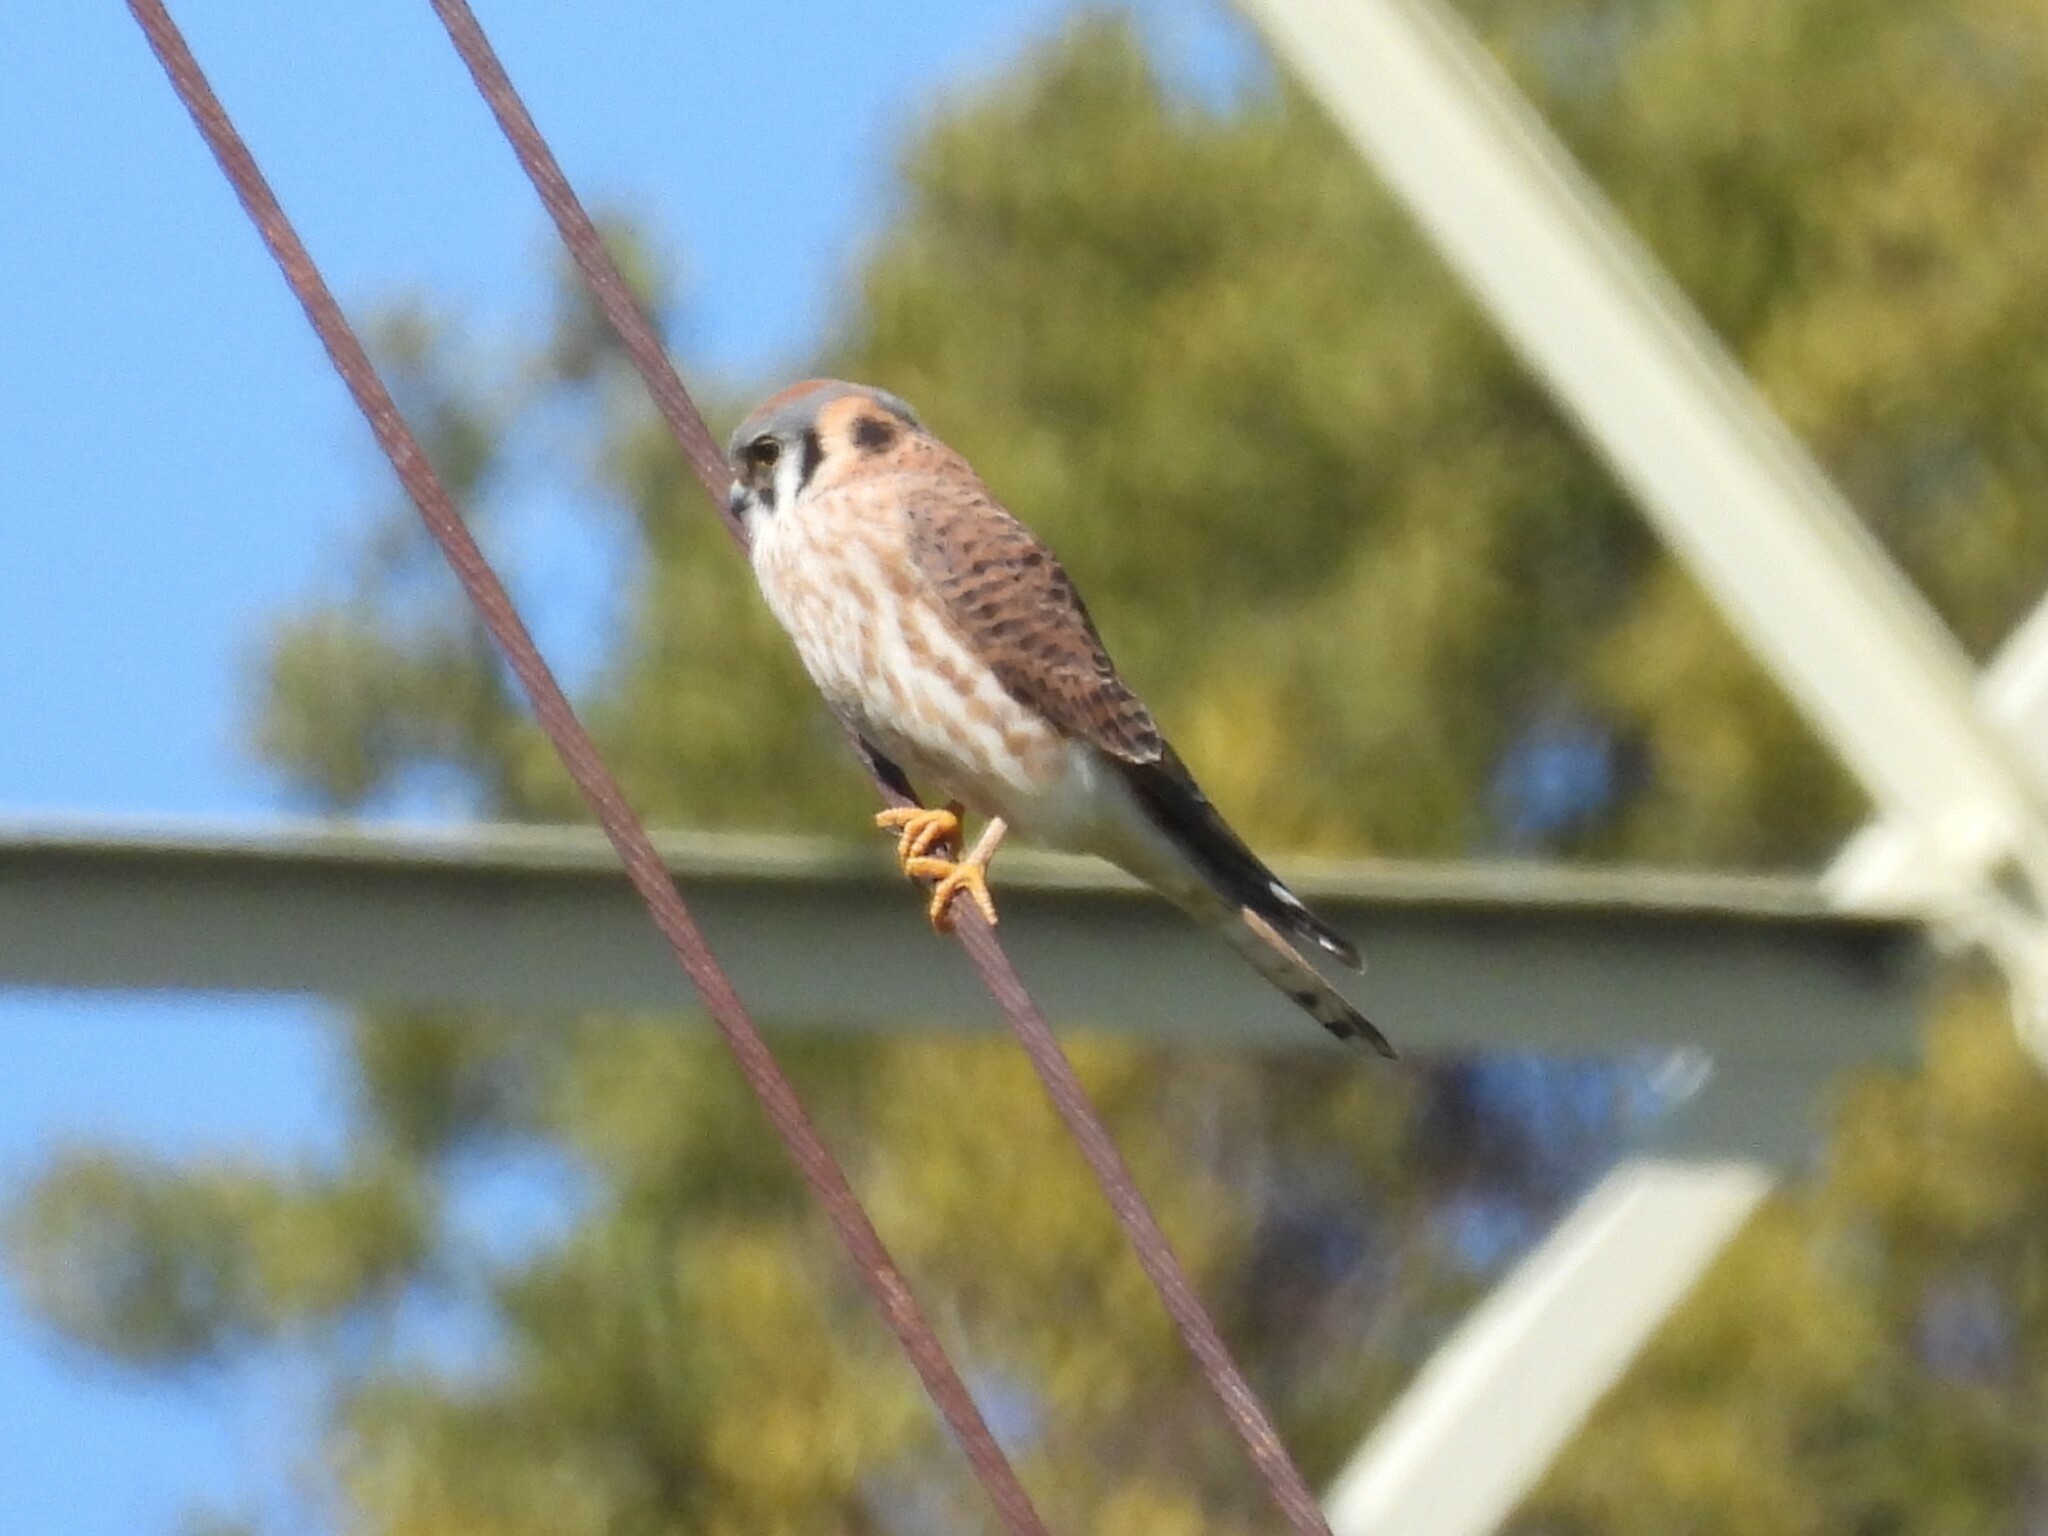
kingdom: Animalia
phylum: Chordata
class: Aves
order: Falconiformes
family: Falconidae
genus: Falco
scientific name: Falco sparverius
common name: American kestrel
